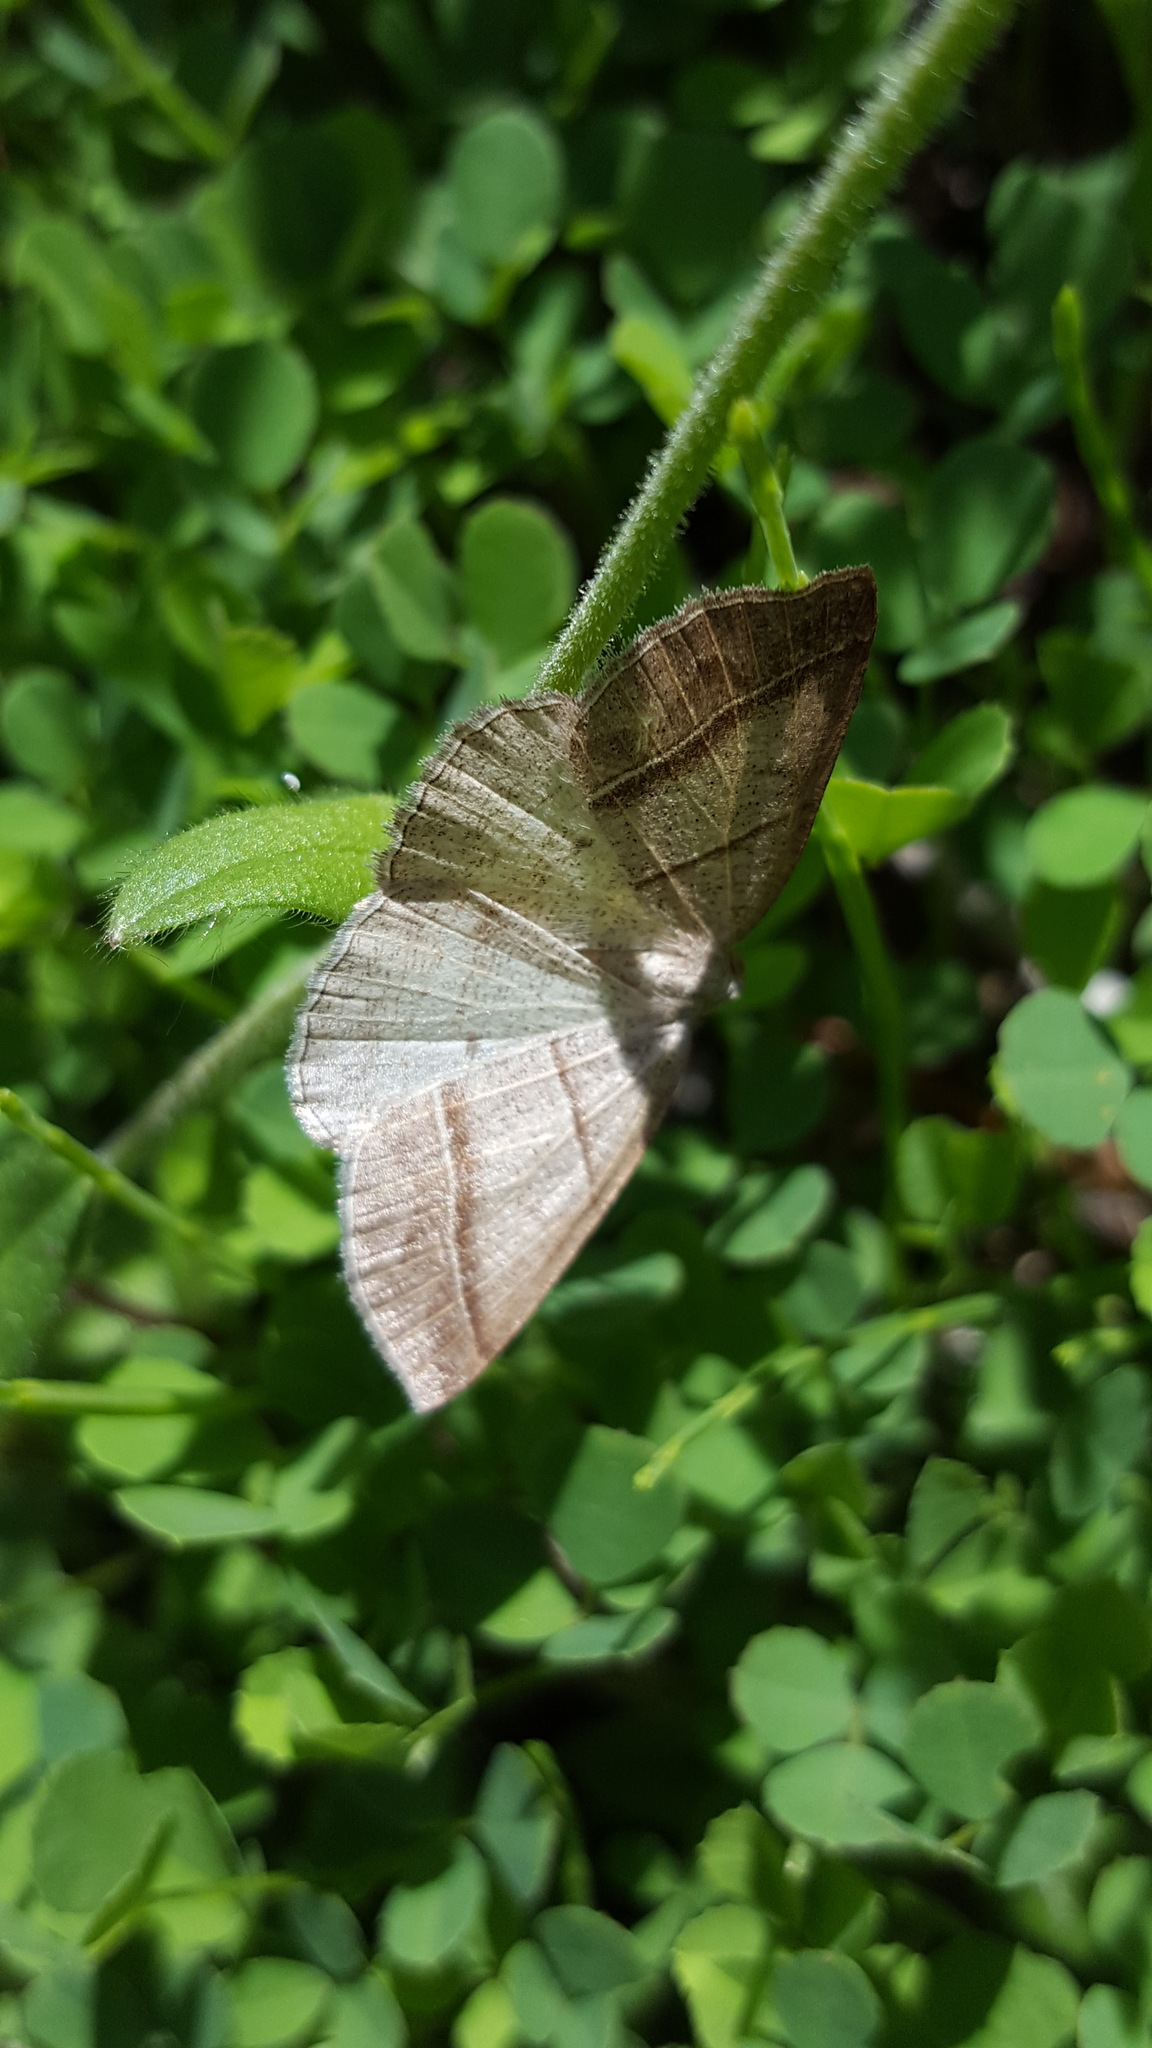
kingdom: Animalia
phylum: Arthropoda
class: Insecta
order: Lepidoptera
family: Pterophoridae
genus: Pterophorus
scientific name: Pterophorus Petrophora subaequaria
